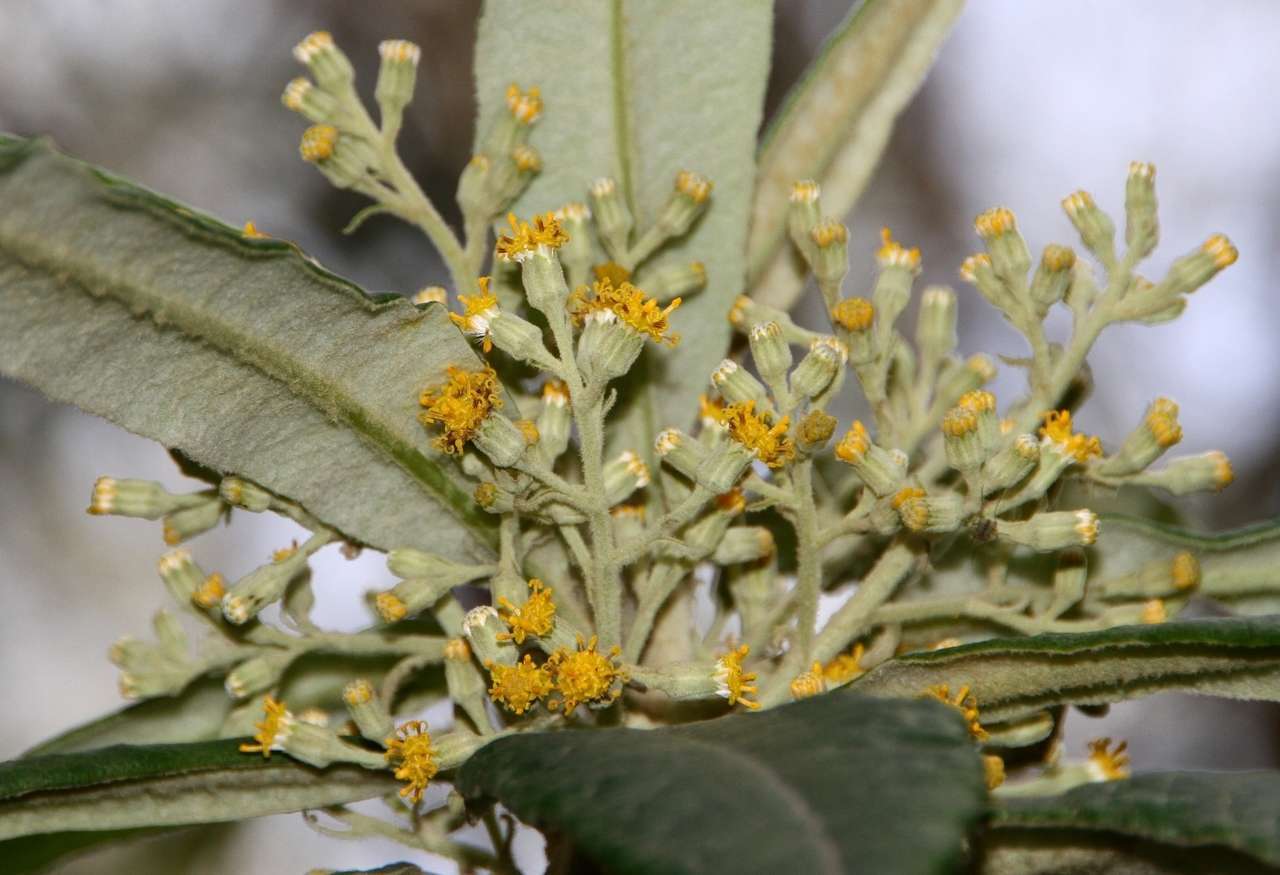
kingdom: Plantae
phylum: Tracheophyta
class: Magnoliopsida
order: Asterales
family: Asteraceae
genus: Bedfordia
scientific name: Bedfordia arborescens
